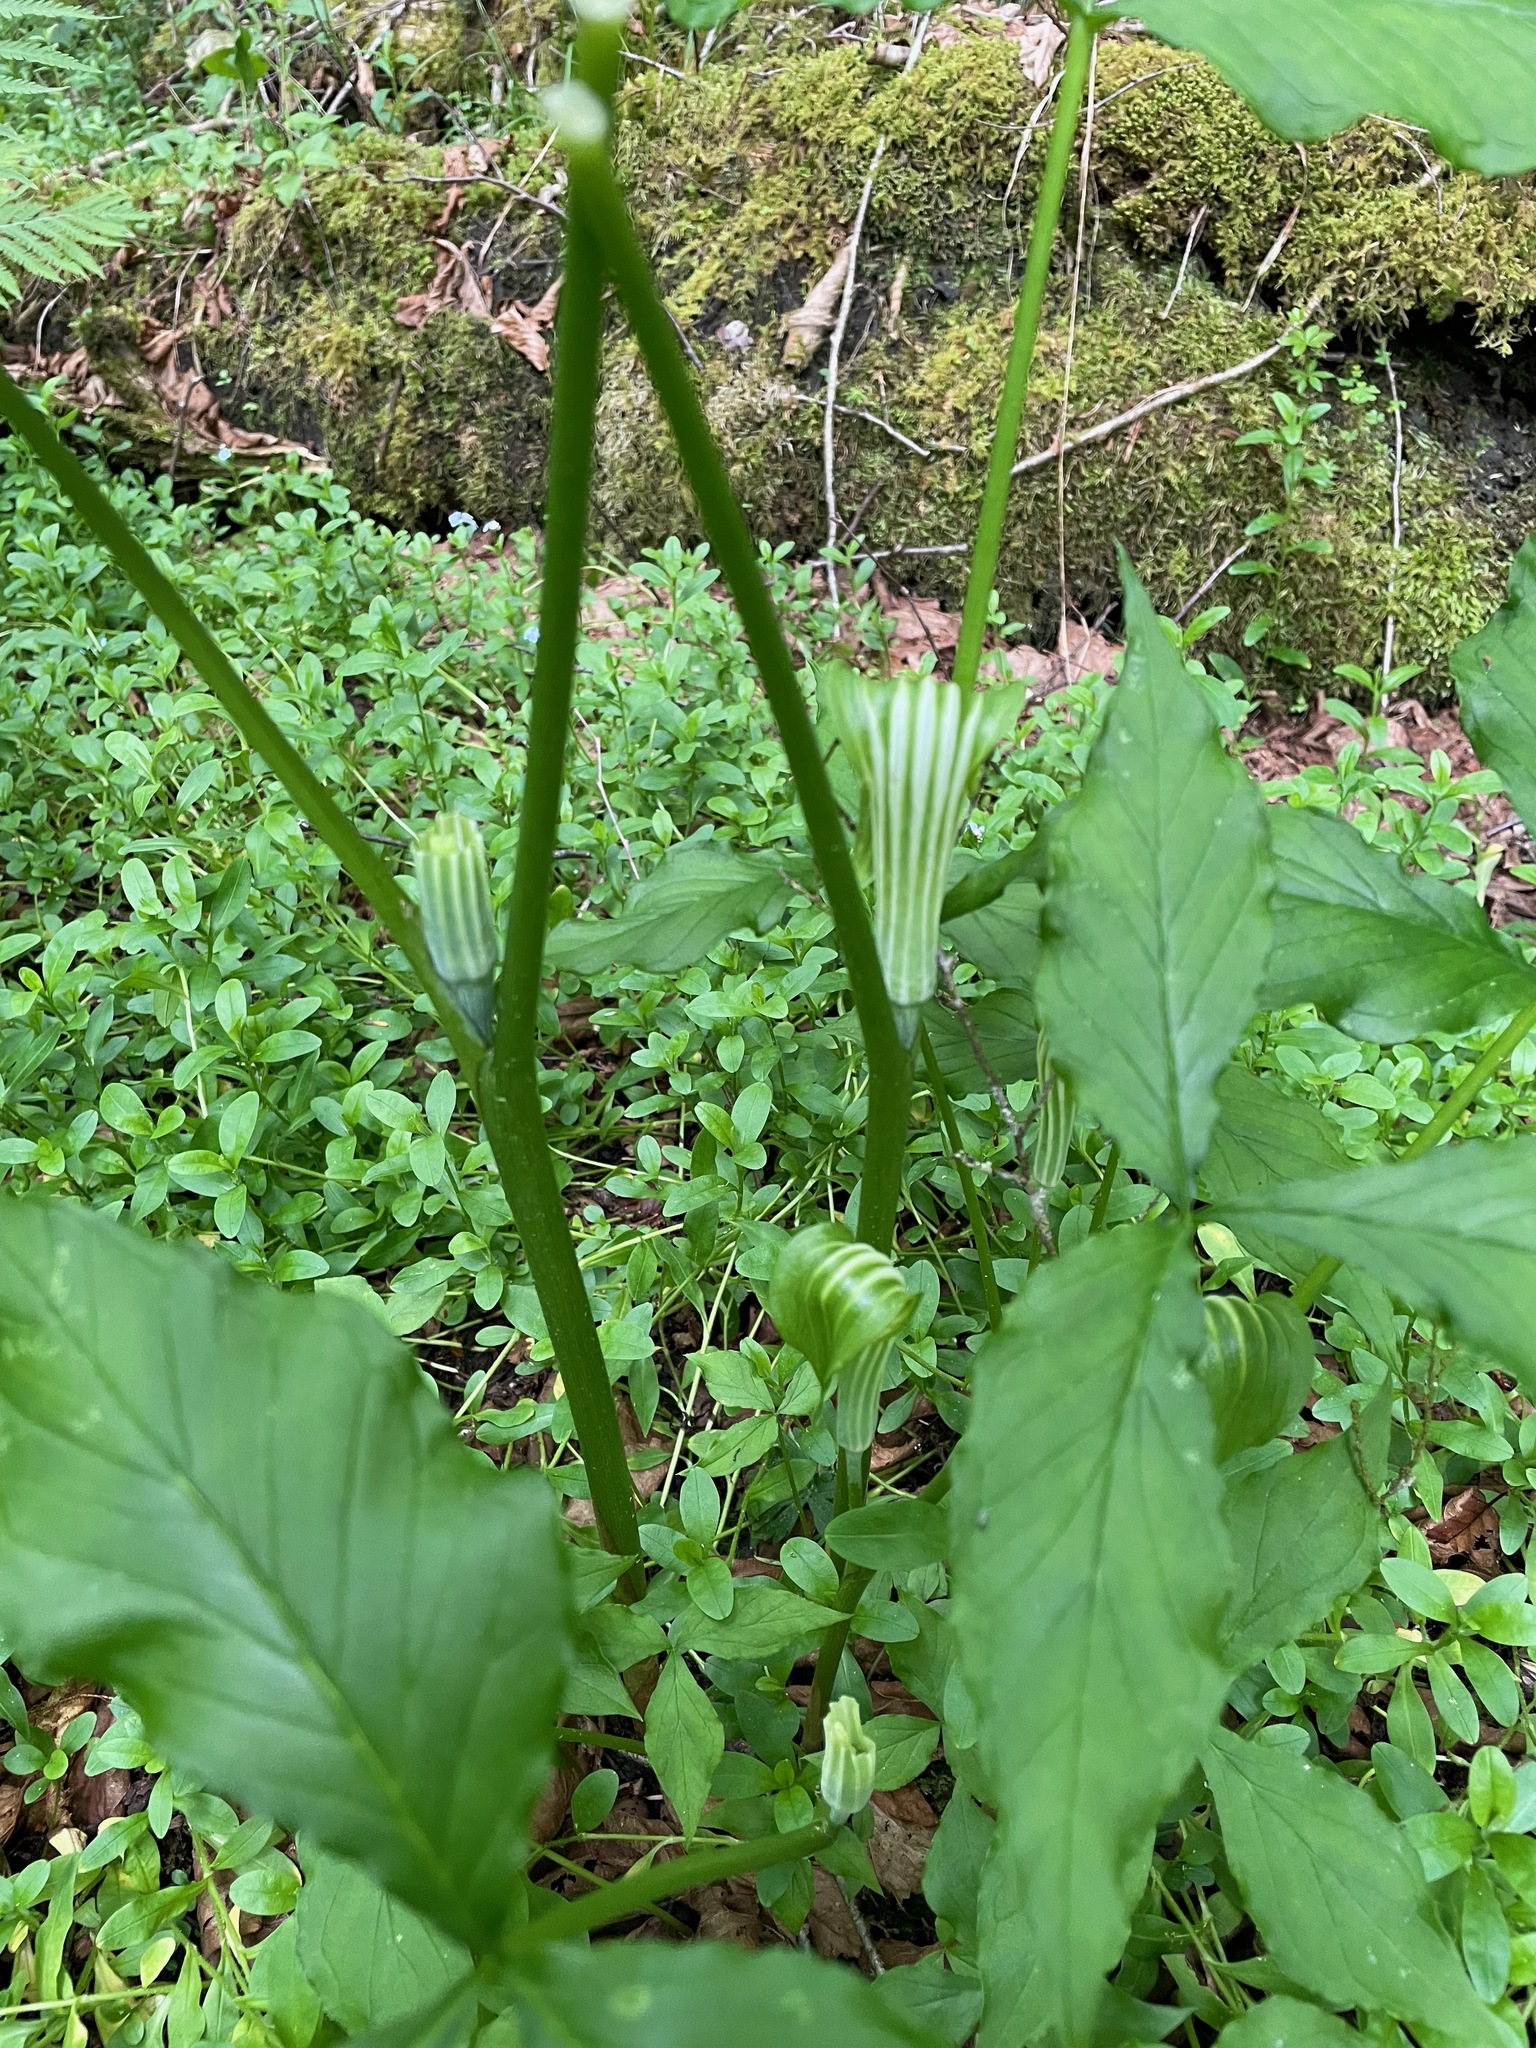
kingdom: Plantae
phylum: Tracheophyta
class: Liliopsida
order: Alismatales
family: Araceae
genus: Arisaema
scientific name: Arisaema stewardsonii
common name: Swamp jack-in-the-pulpit
